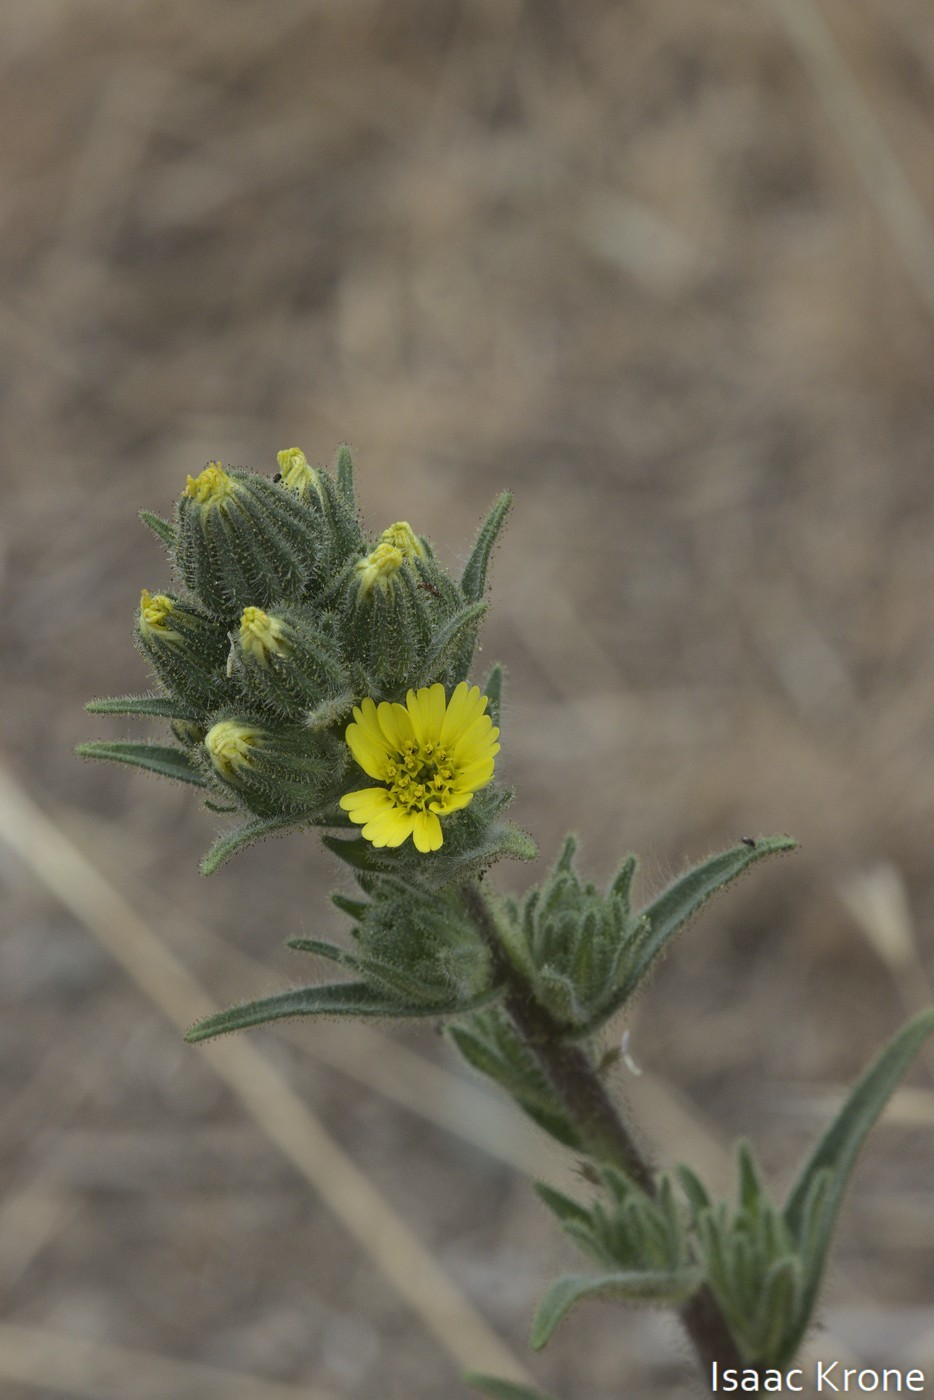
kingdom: Plantae
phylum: Tracheophyta
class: Magnoliopsida
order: Asterales
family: Asteraceae
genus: Madia
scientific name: Madia sativa
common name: Coast tarweed
